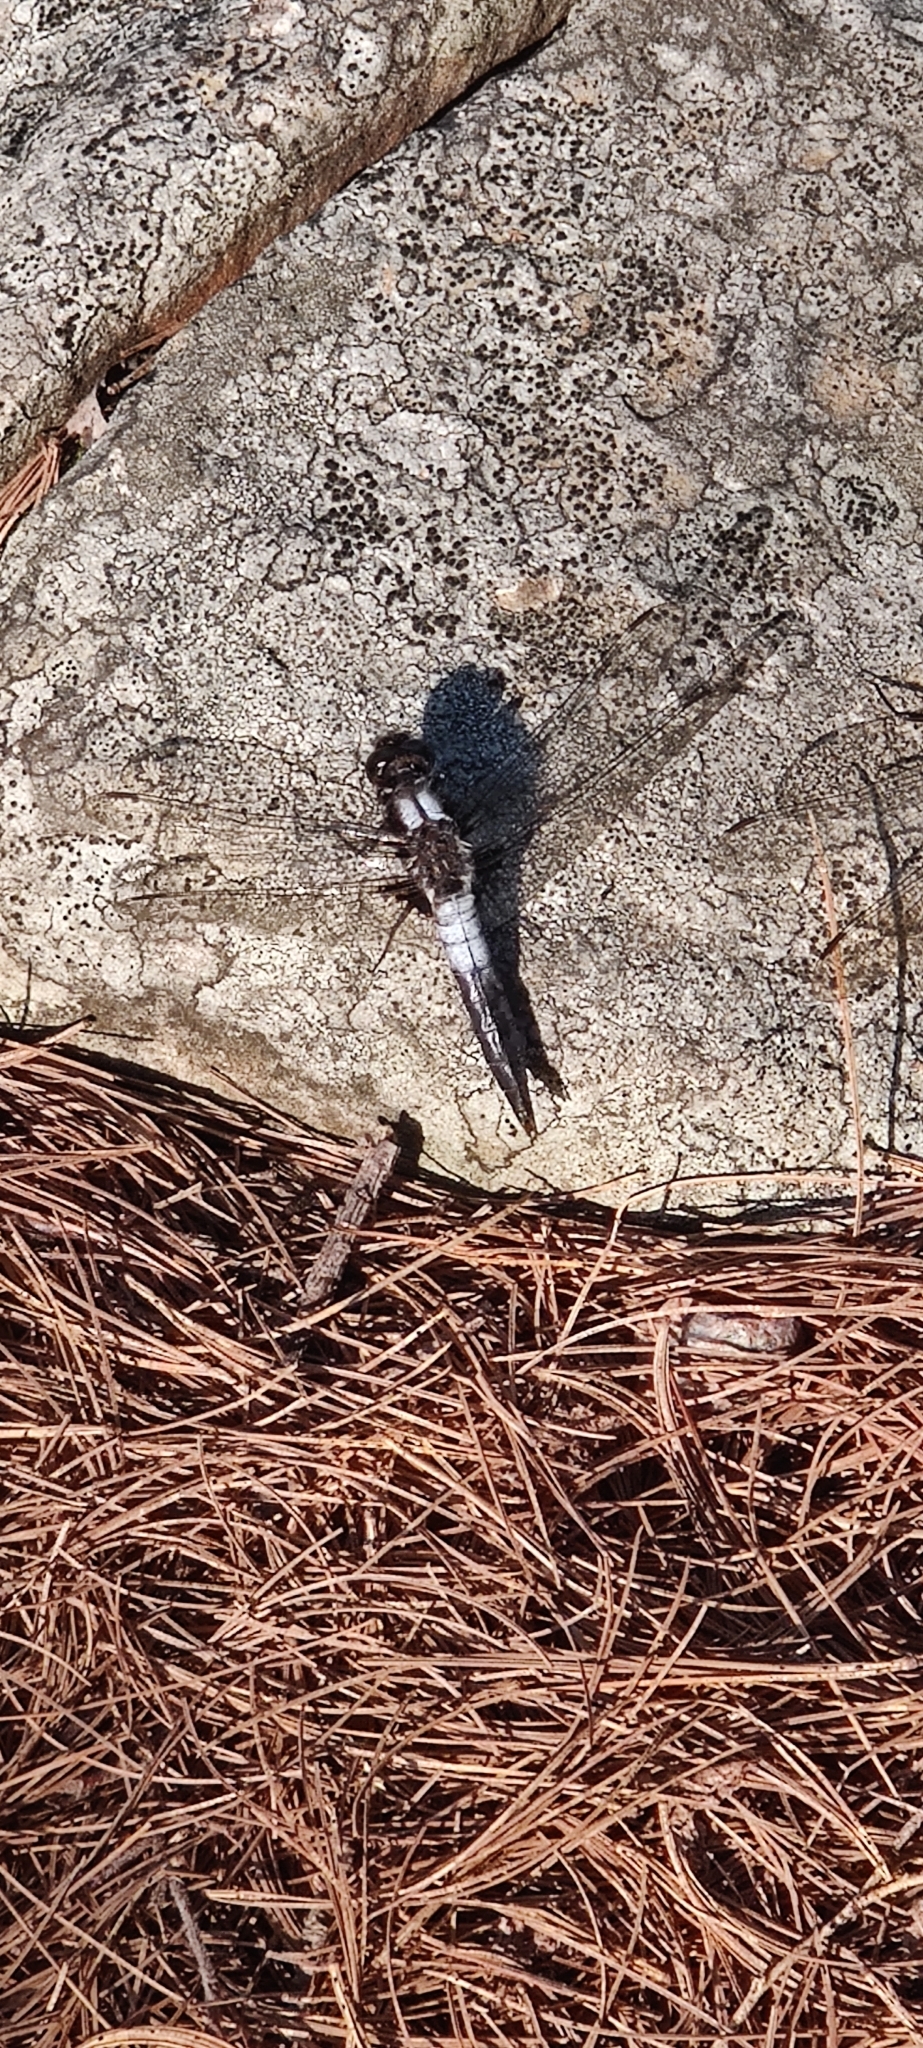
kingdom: Animalia
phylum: Arthropoda
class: Insecta
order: Odonata
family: Libellulidae
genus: Ladona
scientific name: Ladona julia
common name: Chalk-fronted corporal
